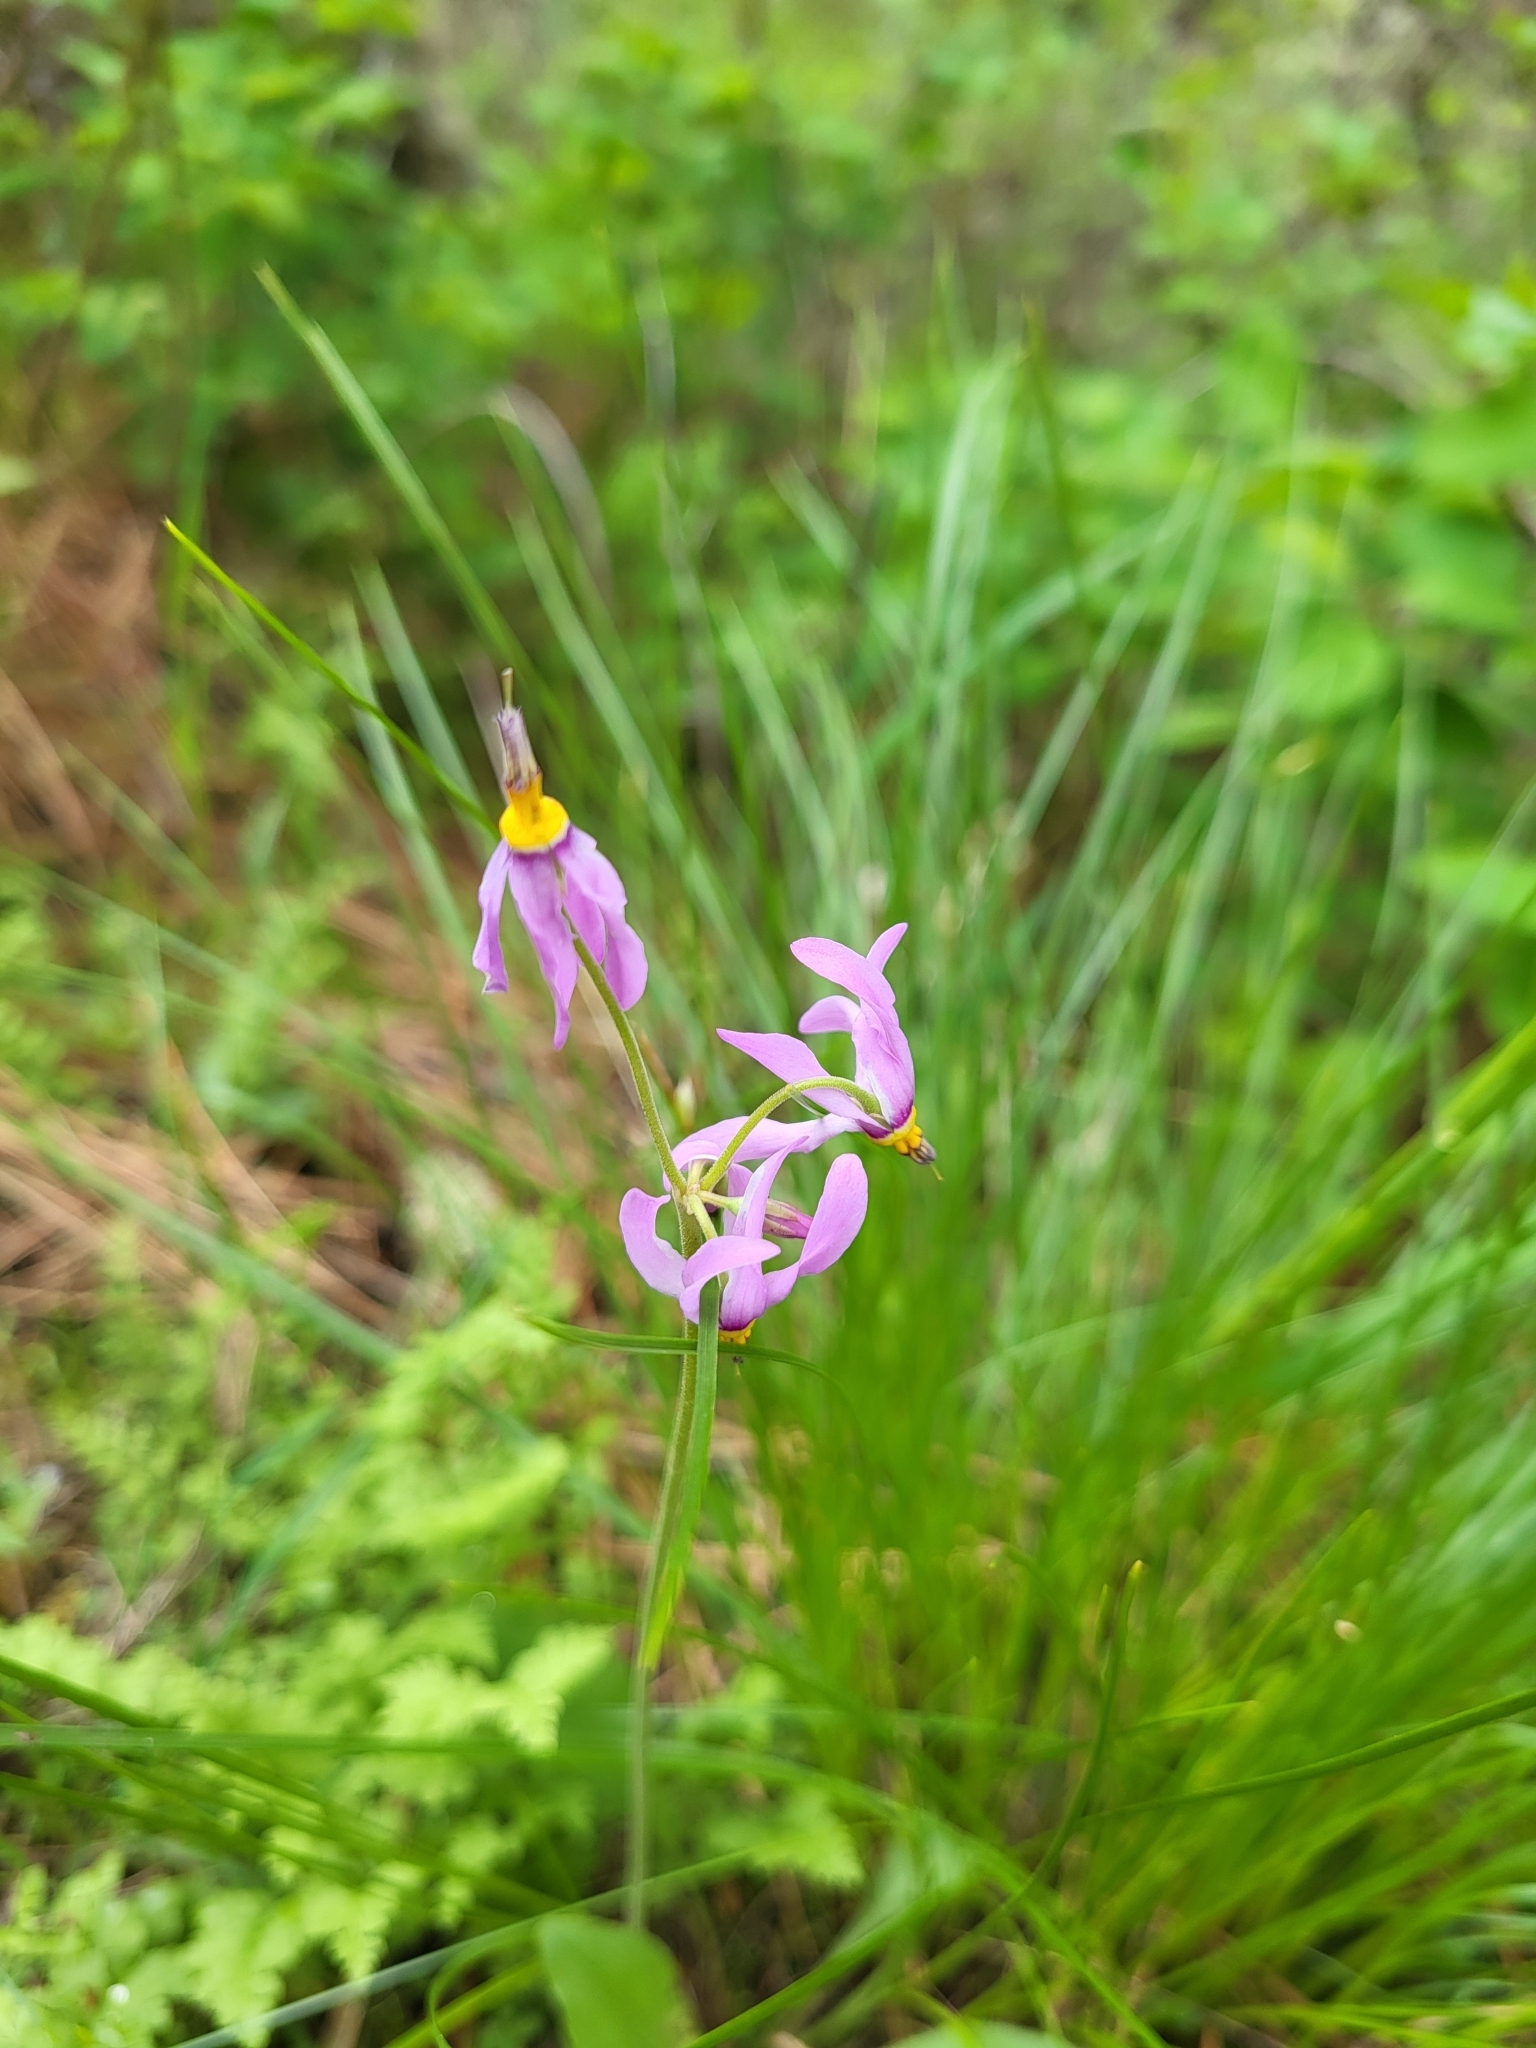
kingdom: Plantae
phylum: Tracheophyta
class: Magnoliopsida
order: Ericales
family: Primulaceae
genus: Dodecatheon
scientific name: Dodecatheon pulchellum
